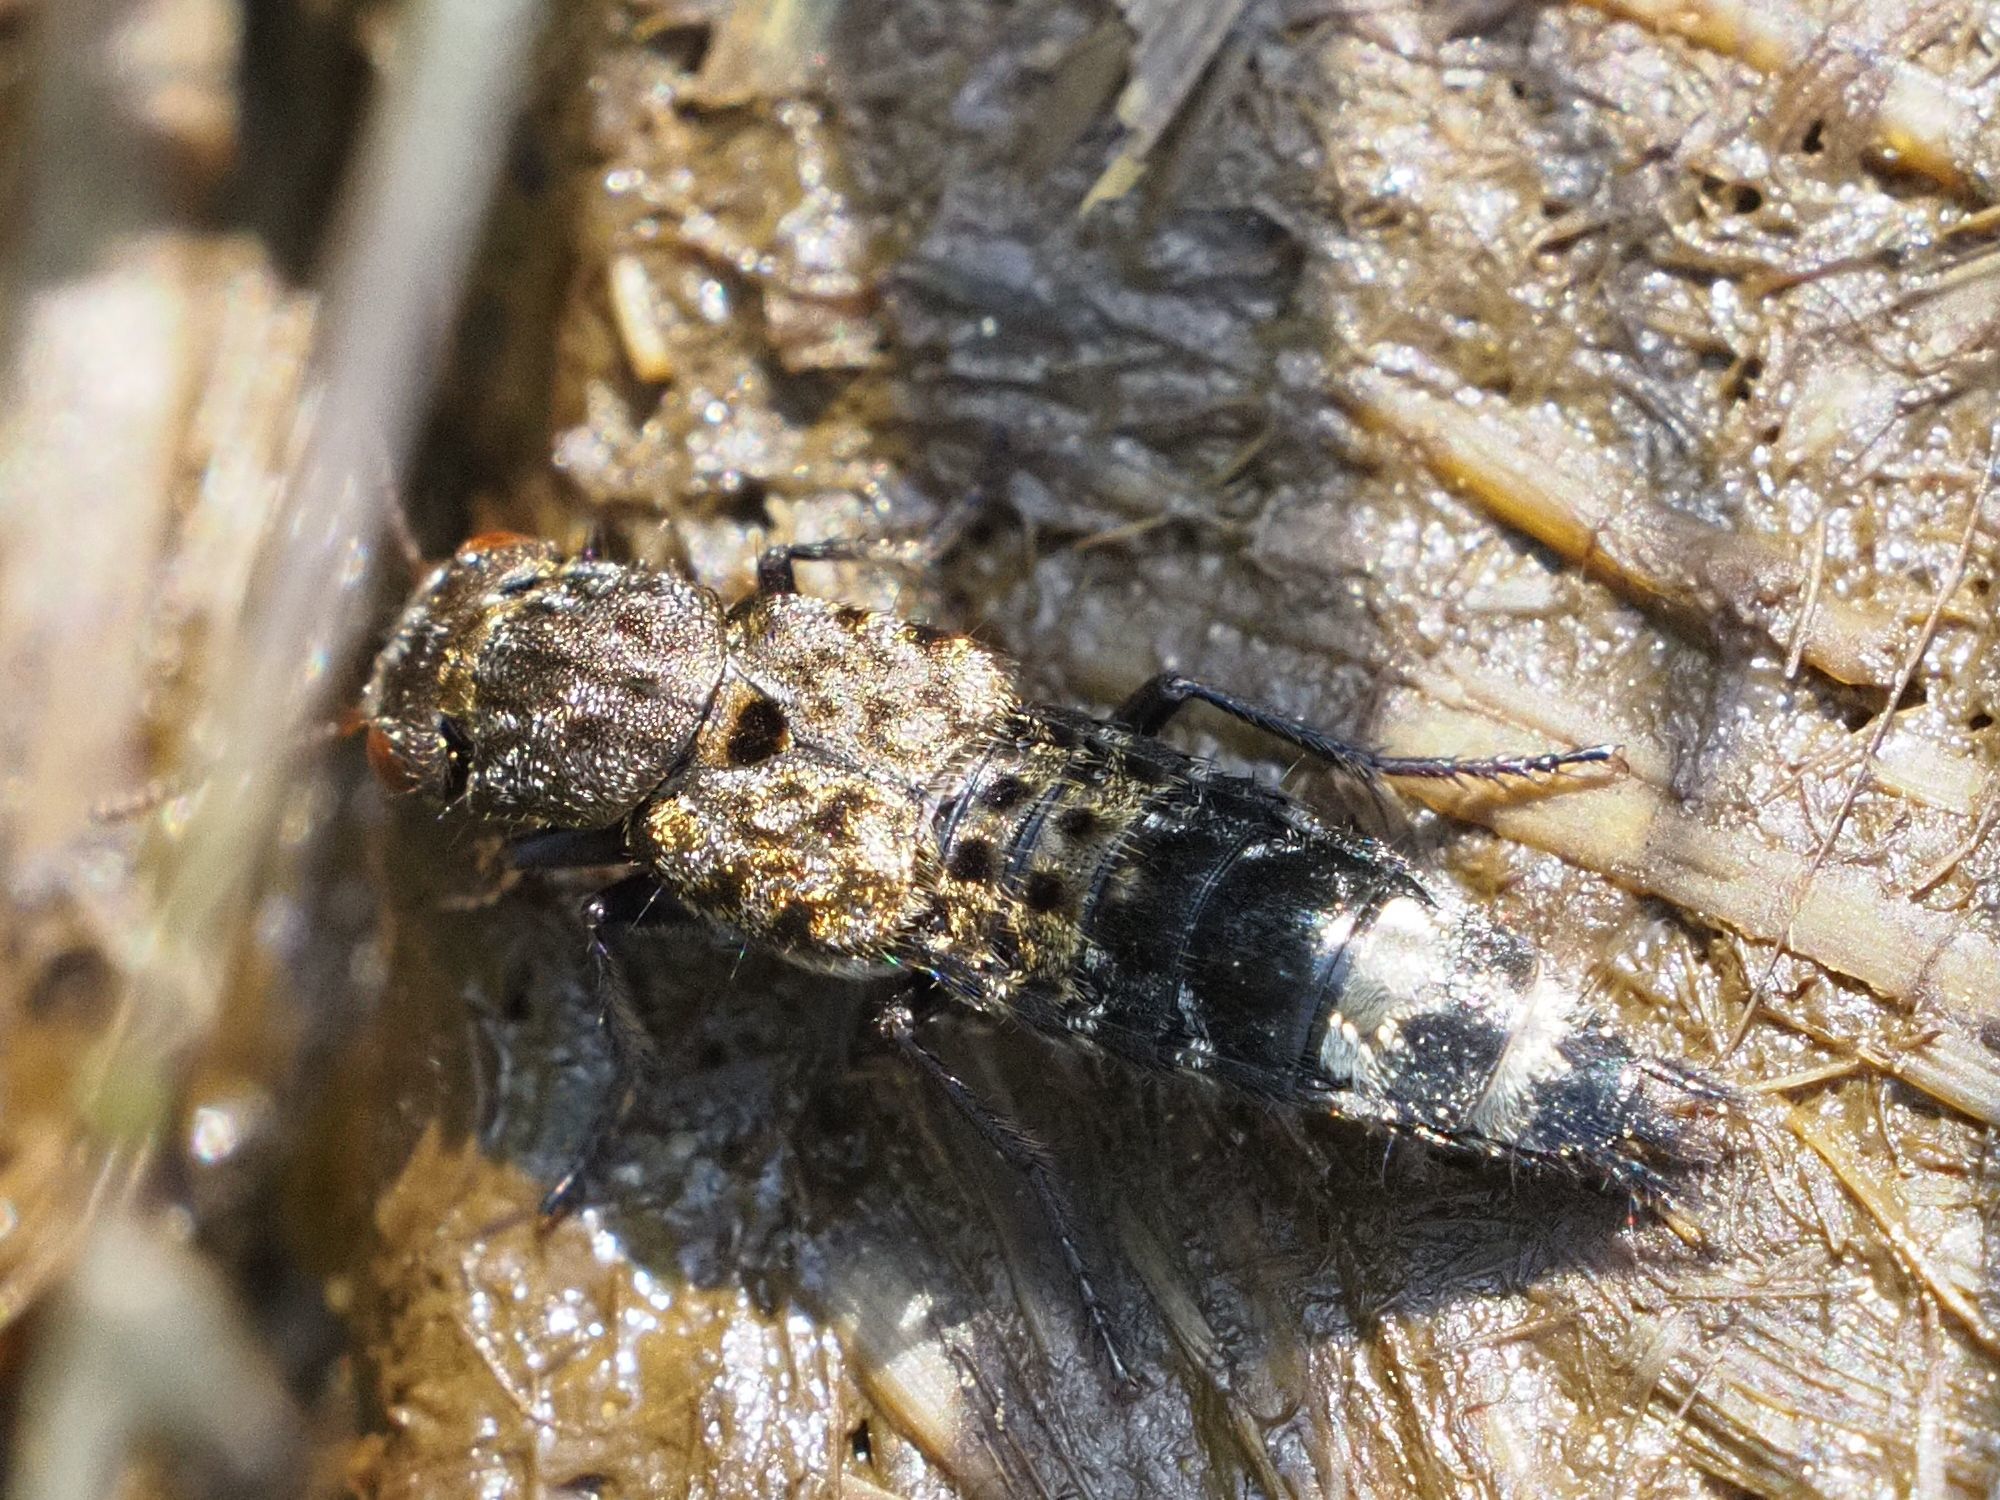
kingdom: Animalia
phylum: Arthropoda
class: Insecta
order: Coleoptera
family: Staphylinidae
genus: Ontholestes
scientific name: Ontholestes murinus
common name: Staph beetle
